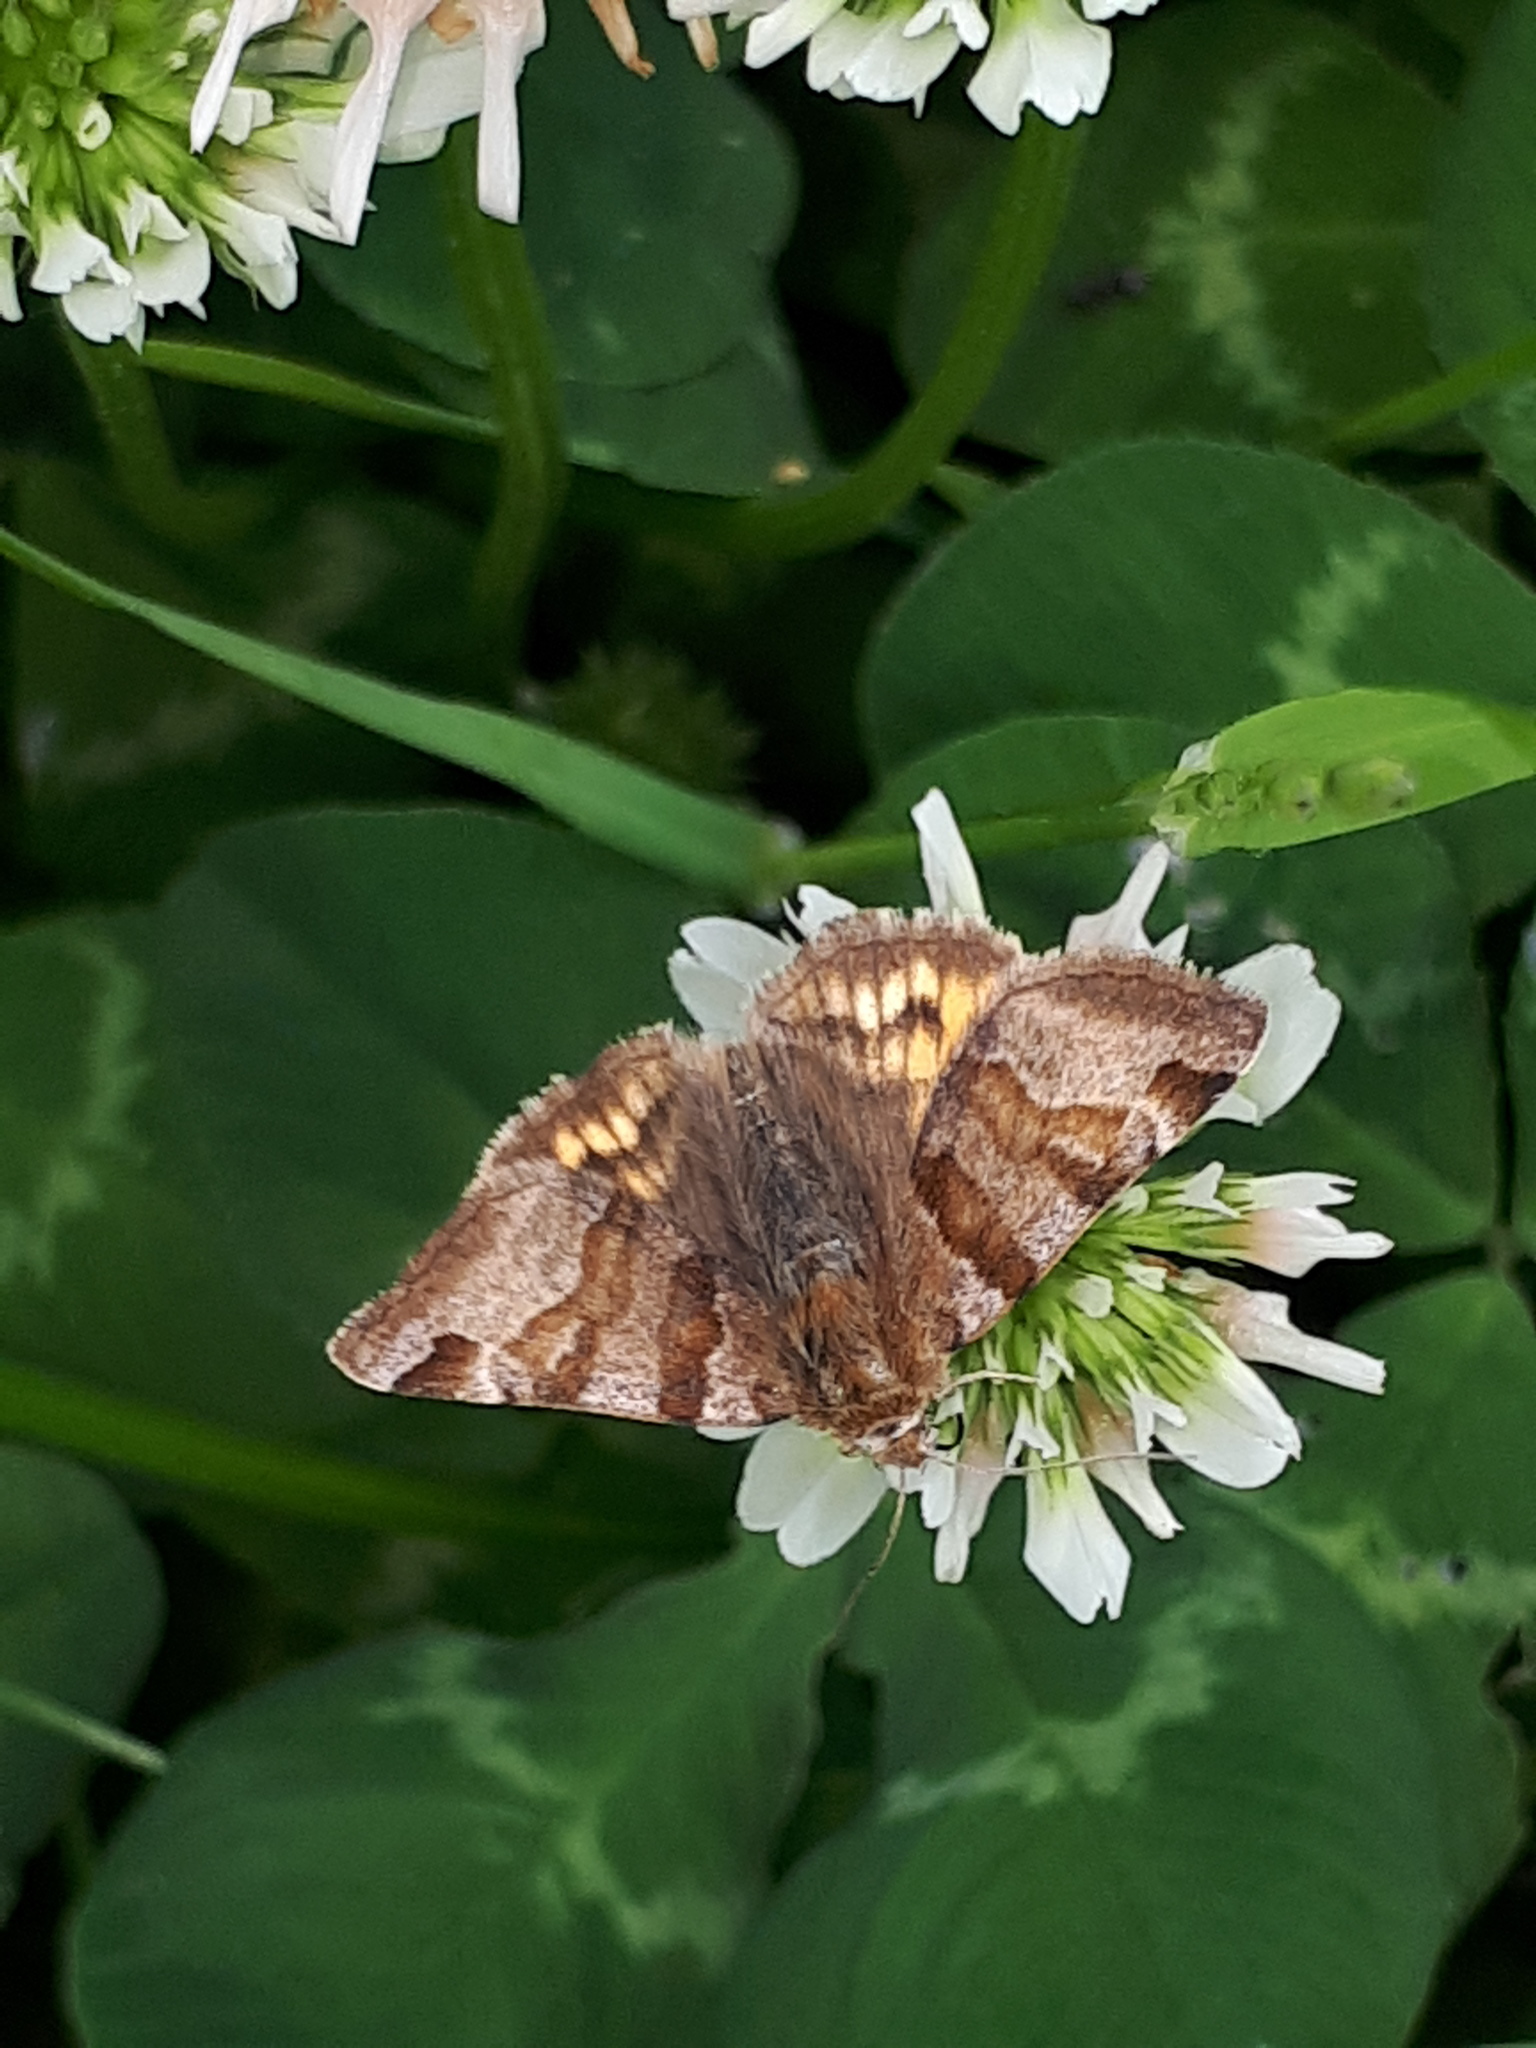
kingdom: Animalia
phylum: Arthropoda
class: Insecta
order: Lepidoptera
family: Erebidae
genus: Euclidia
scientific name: Euclidia glyphica
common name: Burnet companion
